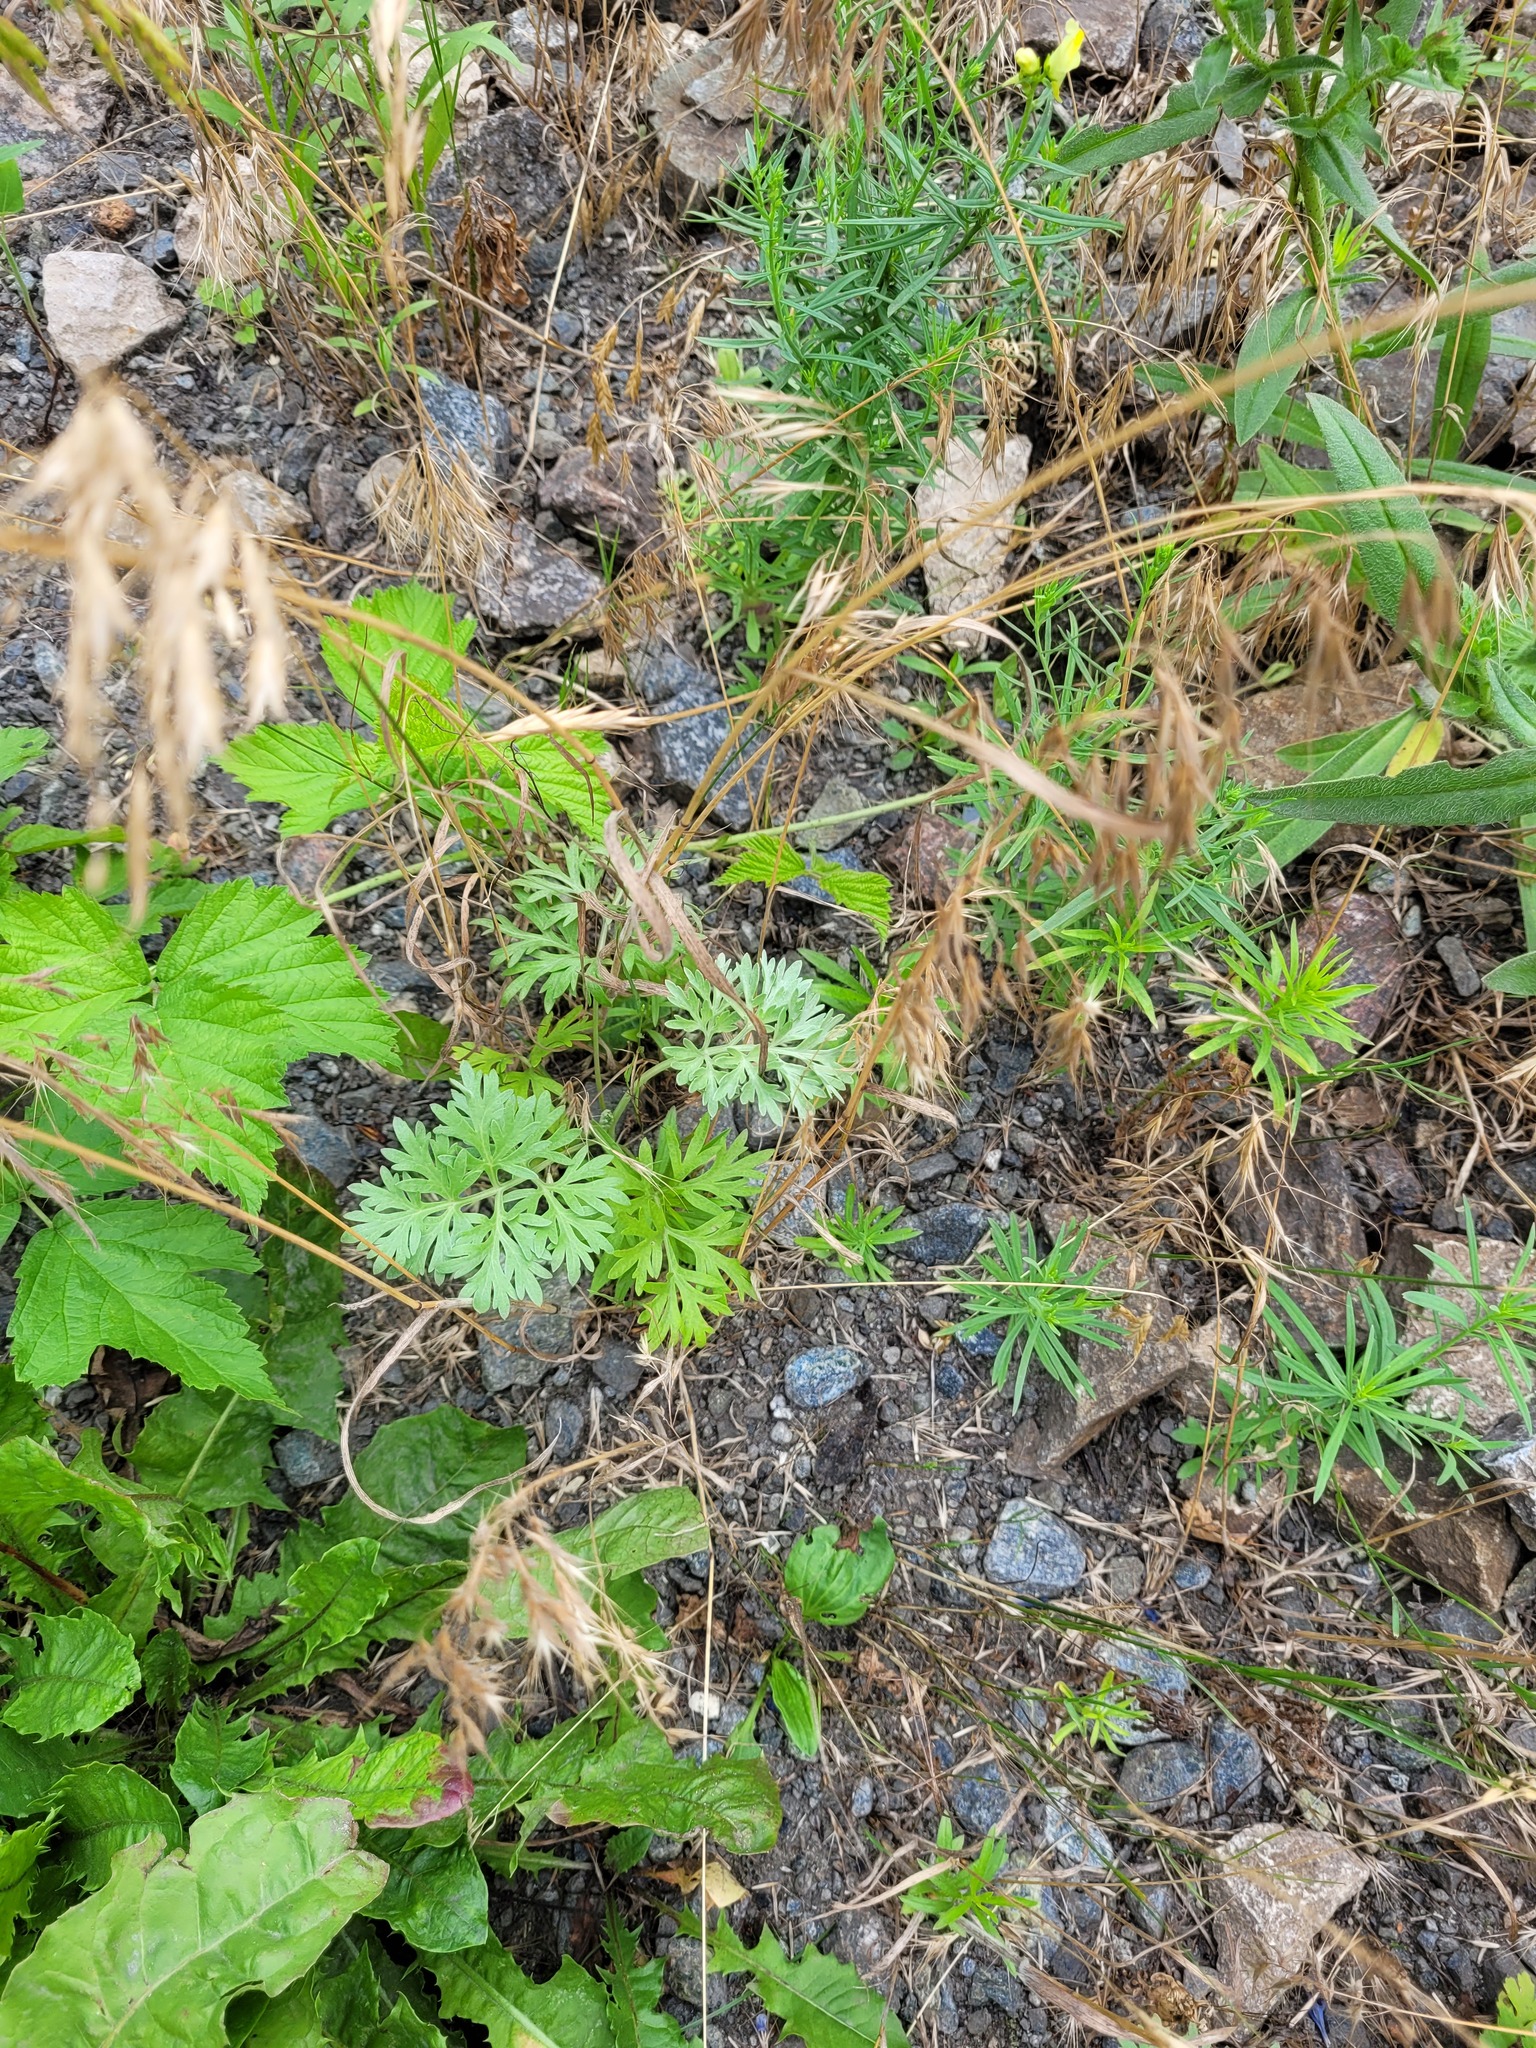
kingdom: Plantae
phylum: Tracheophyta
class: Magnoliopsida
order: Asterales
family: Asteraceae
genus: Artemisia
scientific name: Artemisia absinthium
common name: Wormwood
